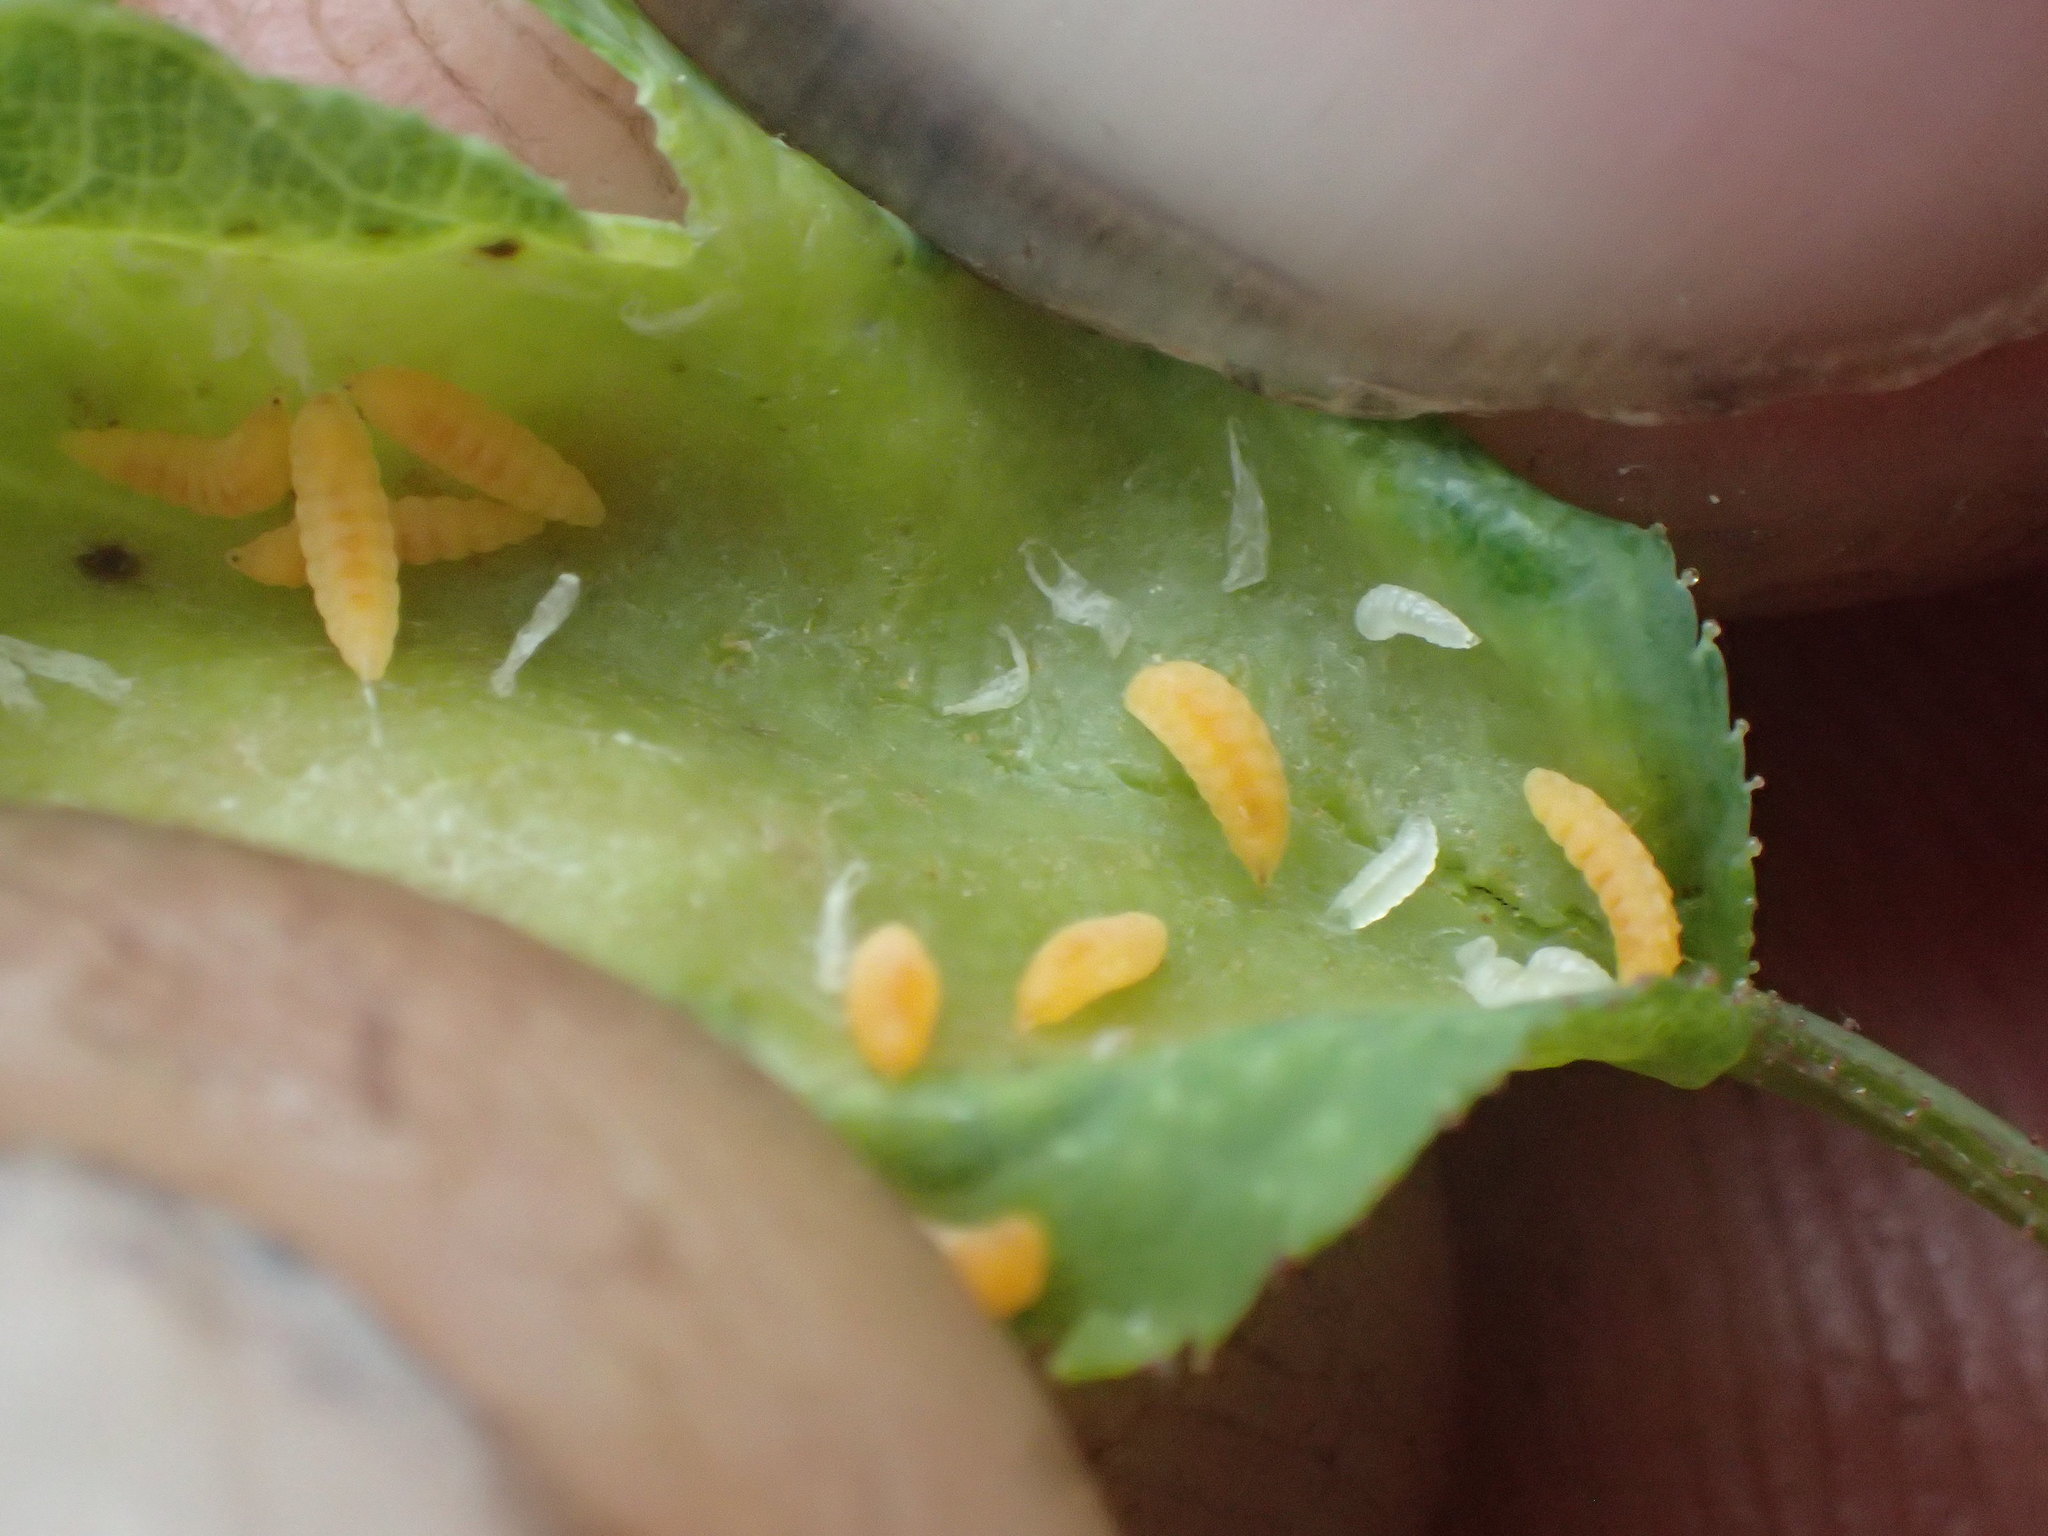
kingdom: Animalia
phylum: Arthropoda
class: Insecta
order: Diptera
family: Cecidomyiidae
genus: Macrolabis
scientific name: Macrolabis rhodophila
